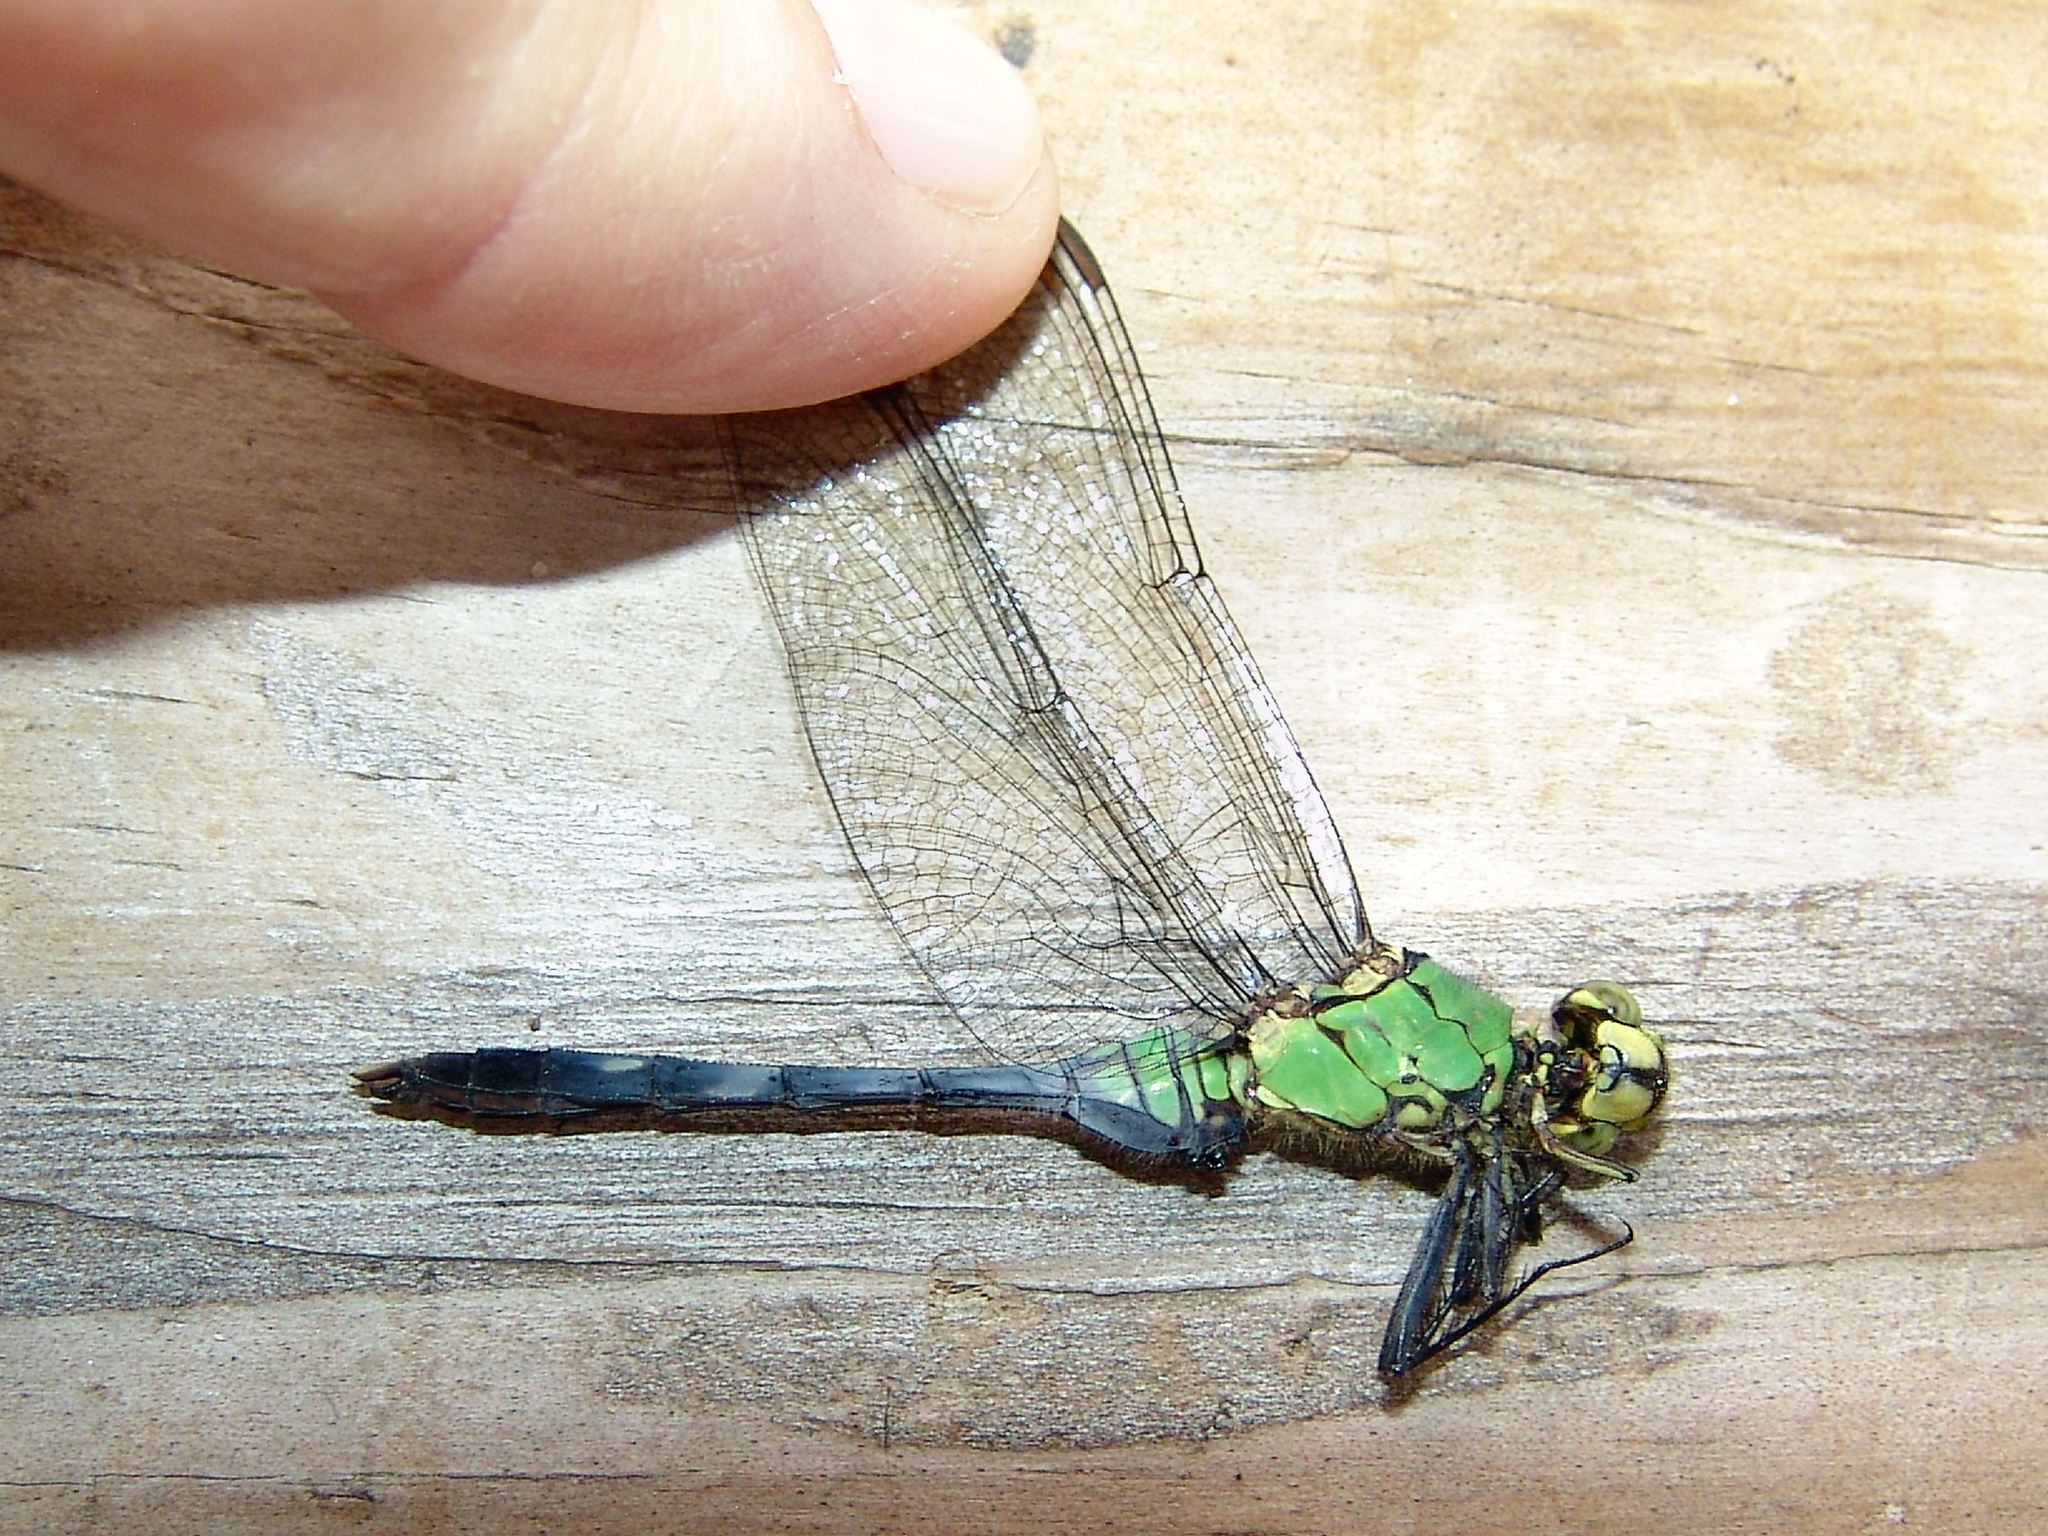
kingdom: Animalia
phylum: Arthropoda
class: Insecta
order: Odonata
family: Libellulidae
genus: Erythemis
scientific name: Erythemis simplicicollis
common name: Eastern pondhawk
